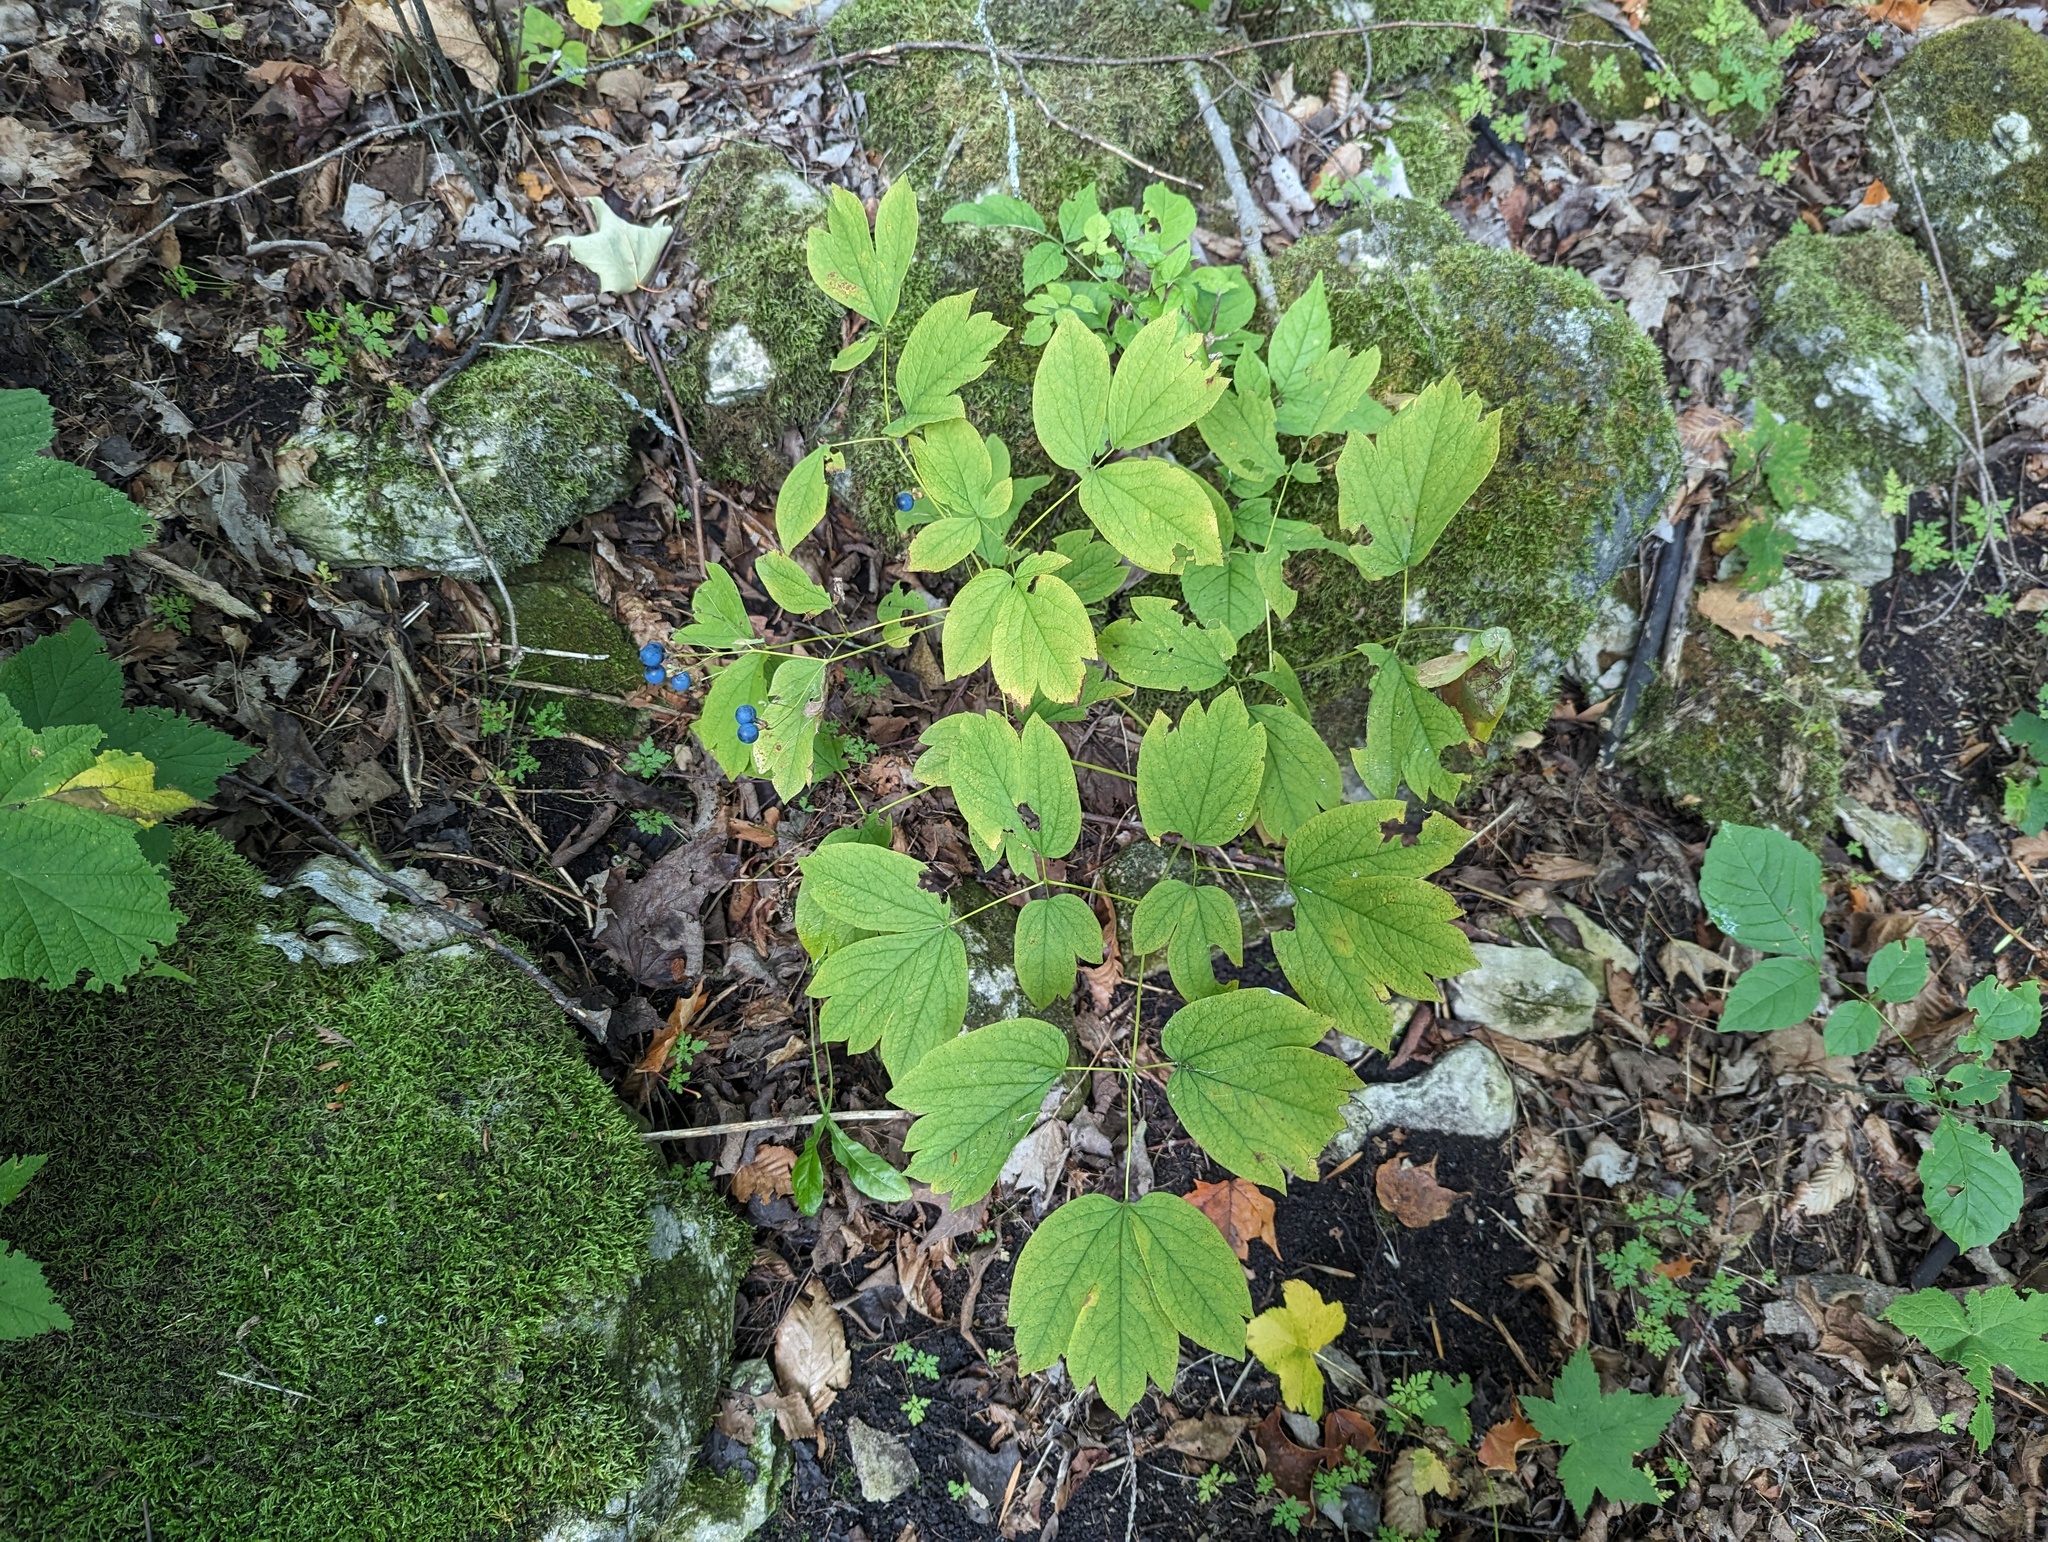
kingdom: Plantae
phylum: Tracheophyta
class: Magnoliopsida
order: Ranunculales
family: Berberidaceae
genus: Caulophyllum
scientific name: Caulophyllum thalictroides
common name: Blue cohosh
